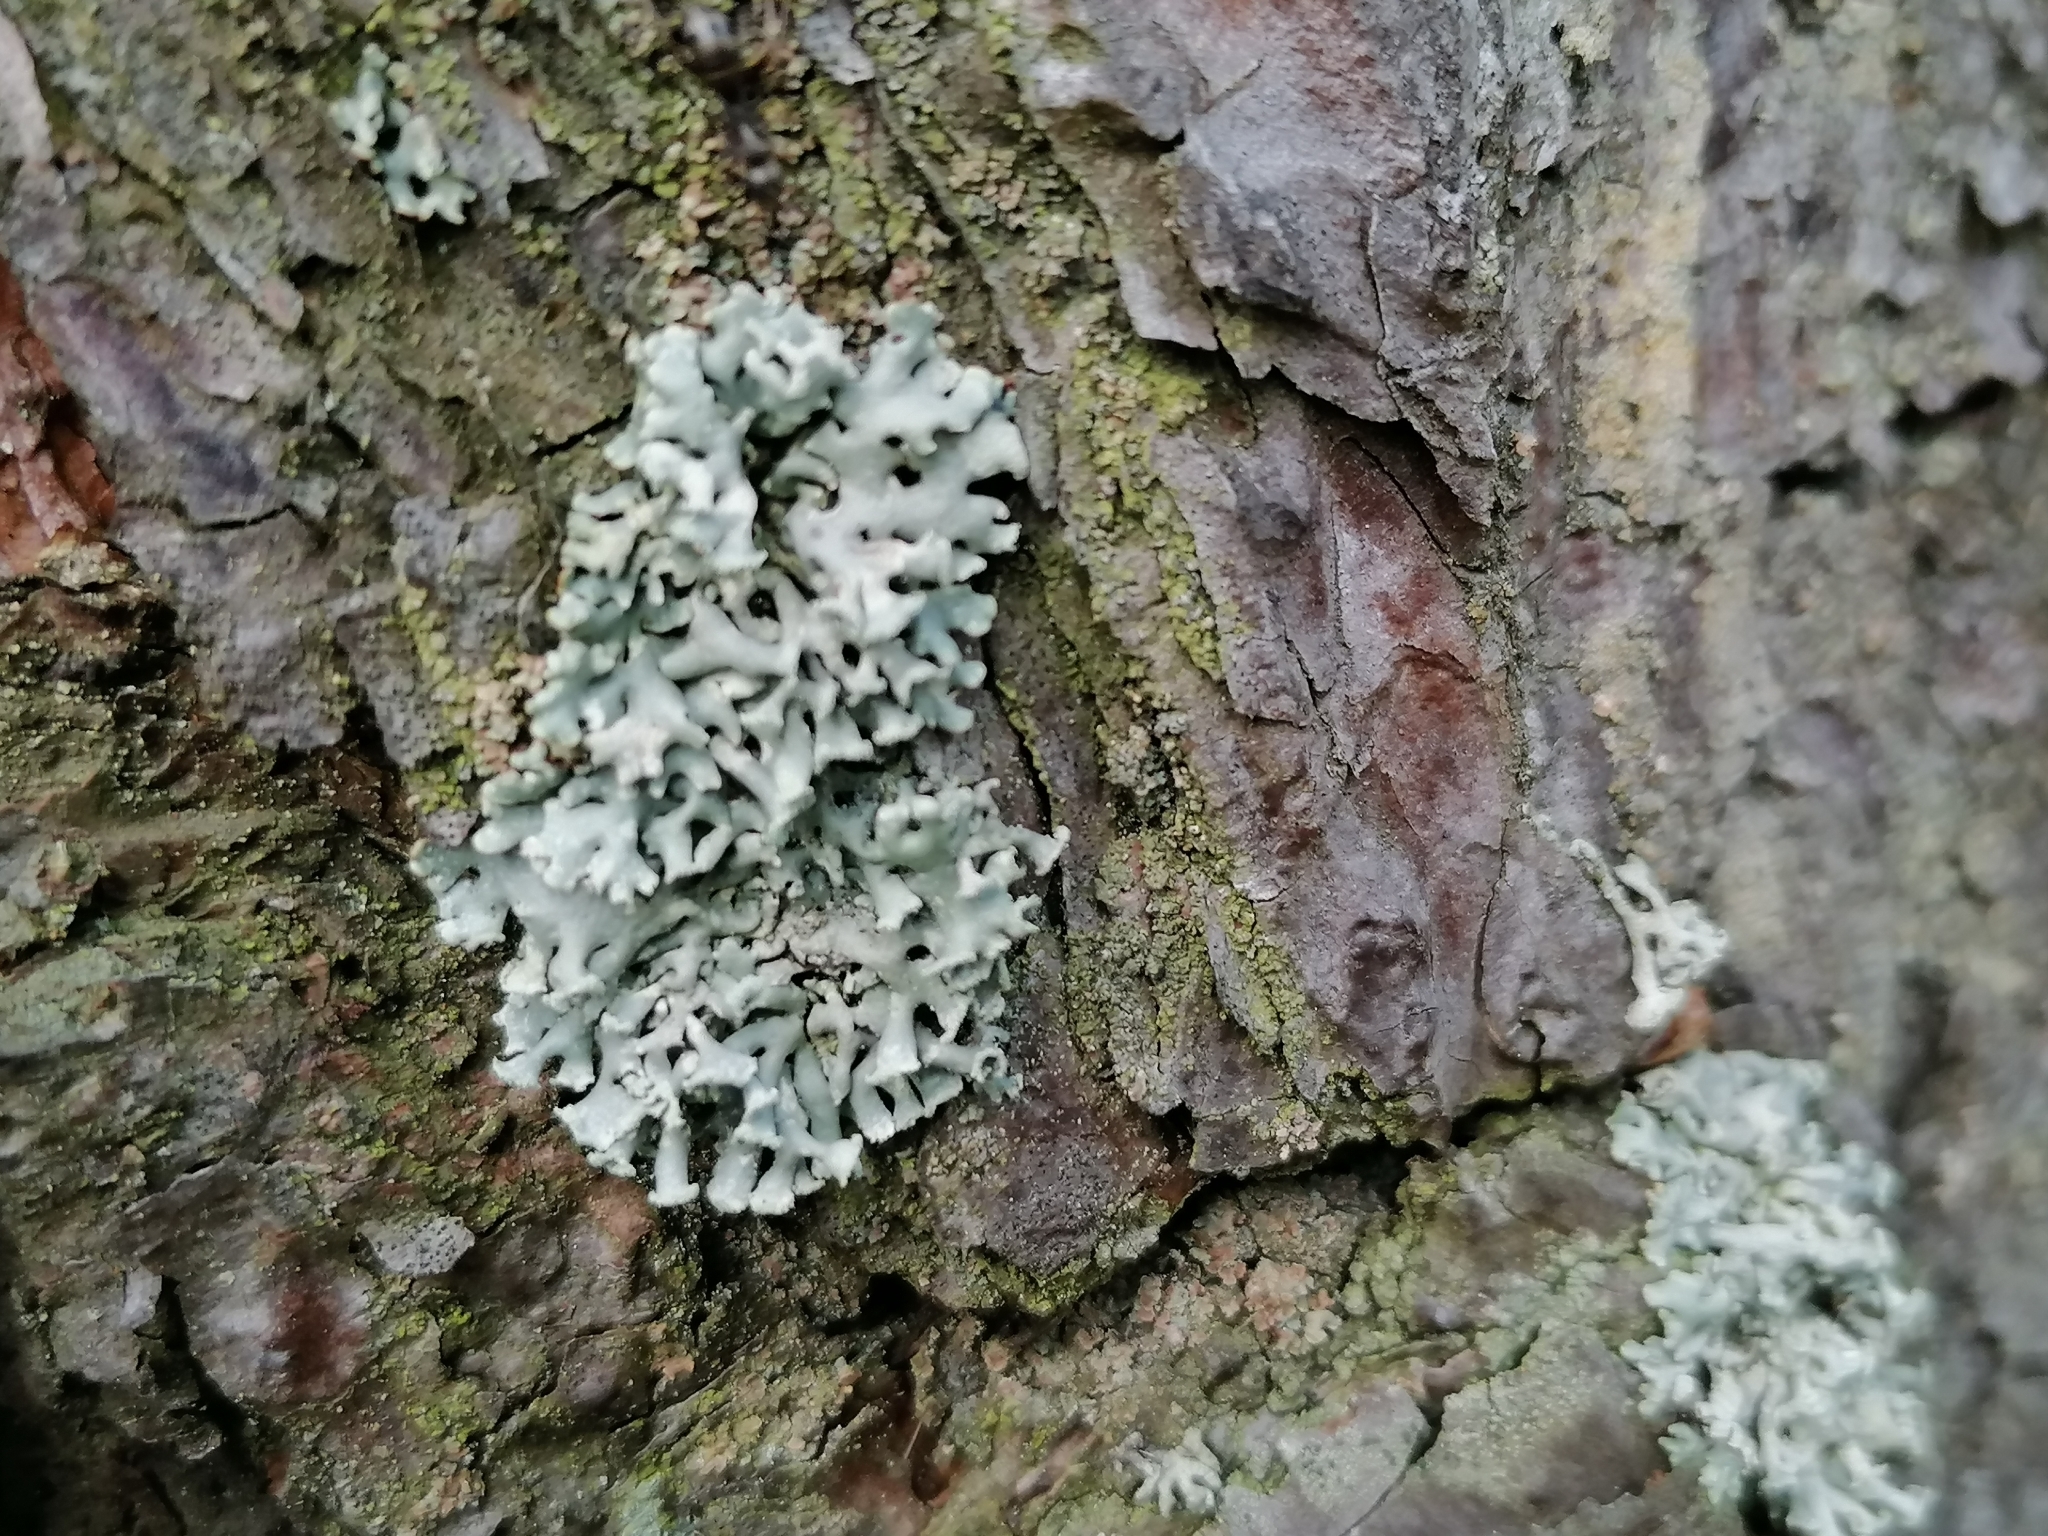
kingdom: Fungi
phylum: Ascomycota
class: Lecanoromycetes
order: Lecanorales
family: Parmeliaceae
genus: Hypogymnia
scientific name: Hypogymnia physodes
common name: Dark crottle
